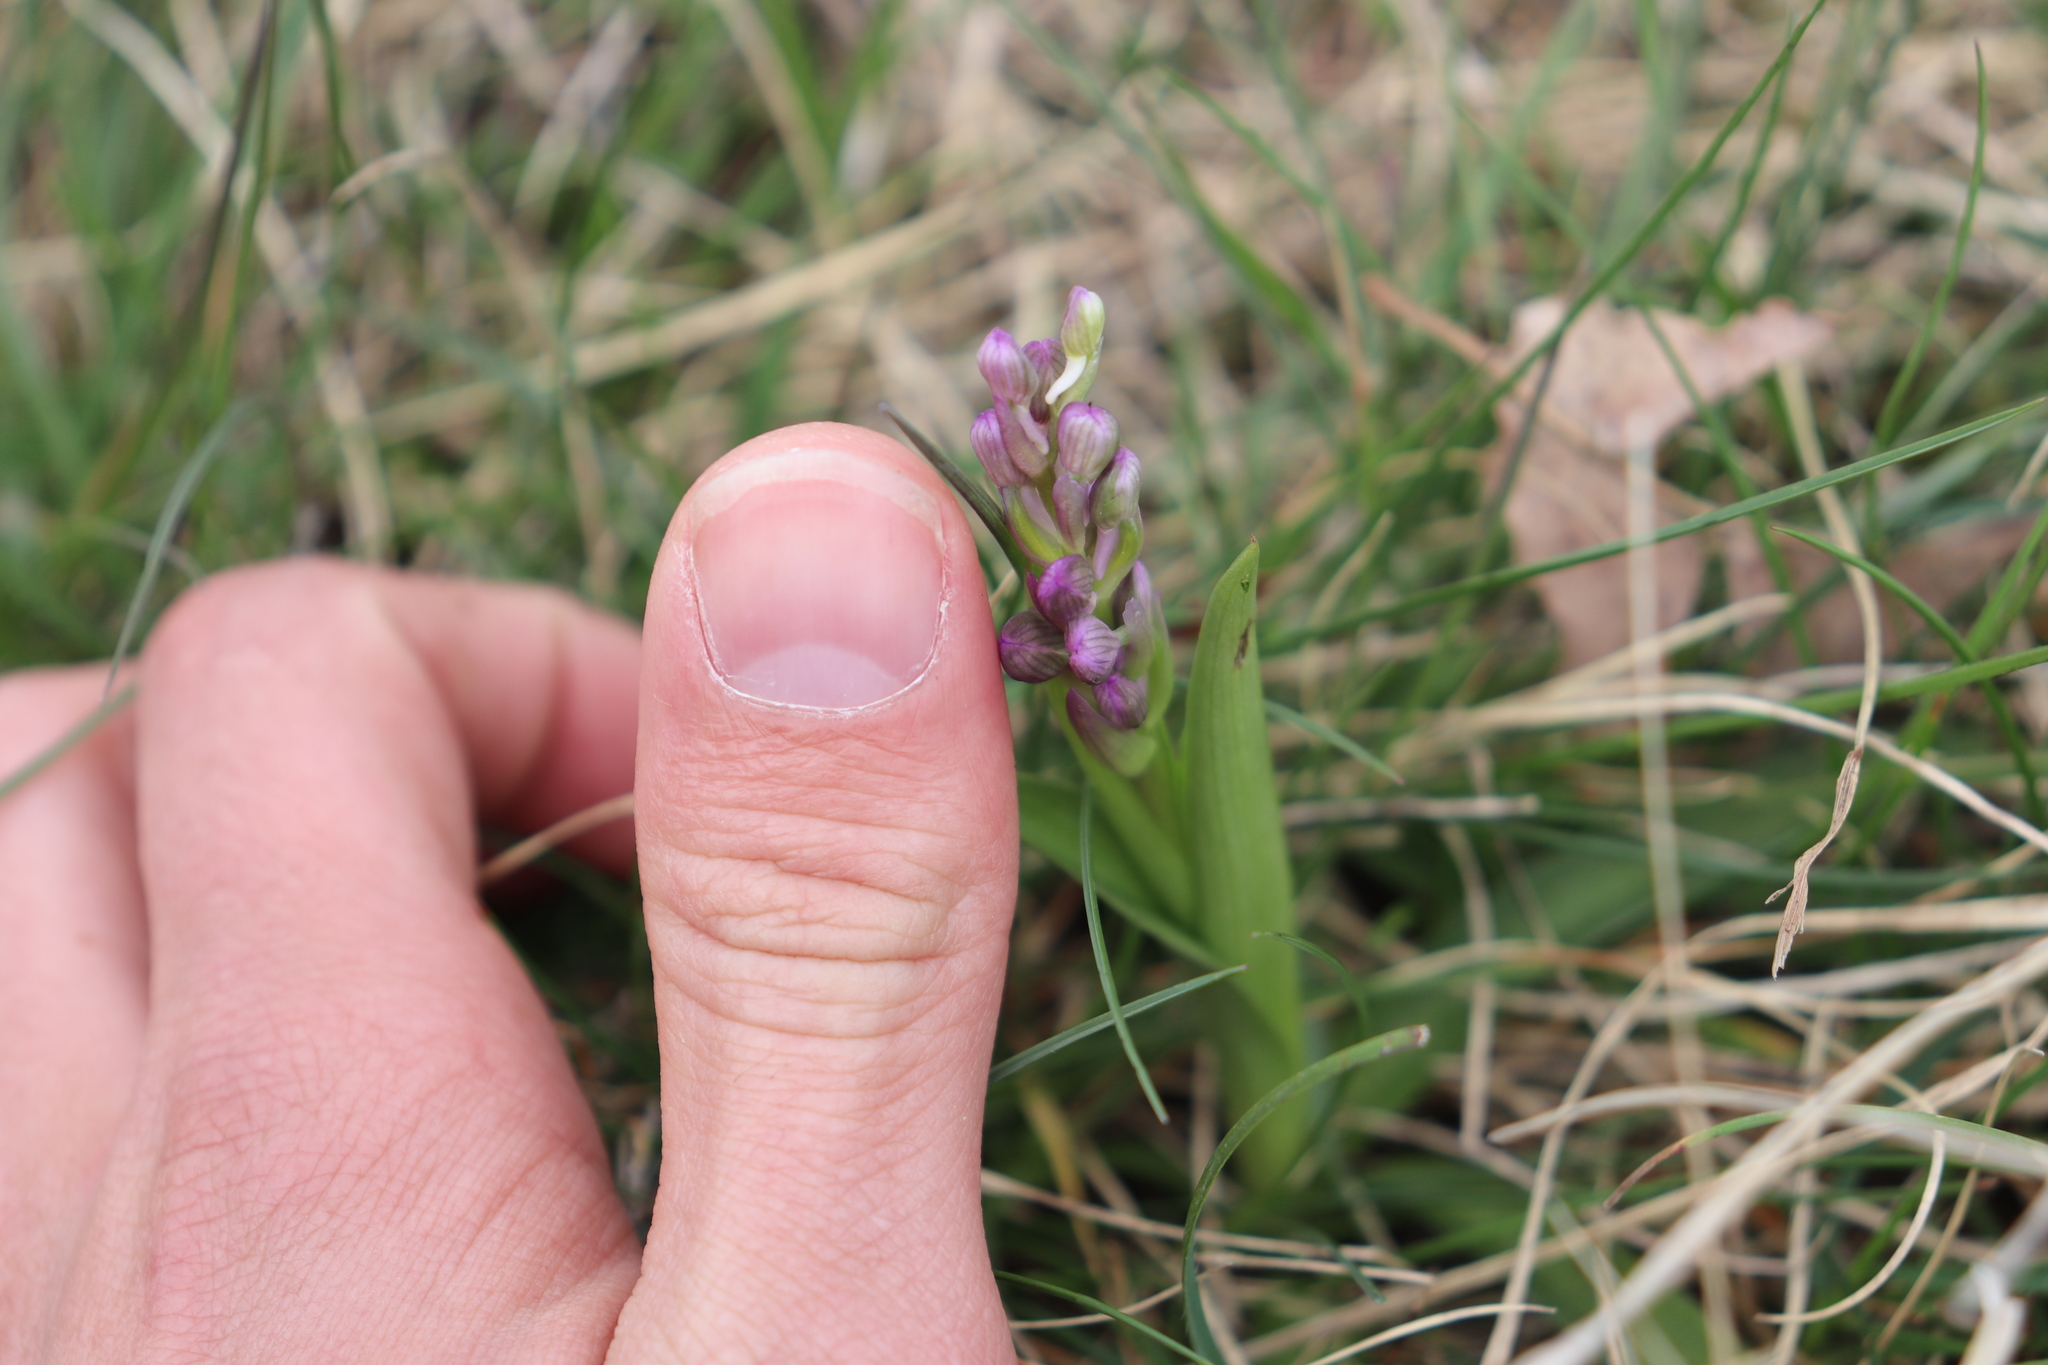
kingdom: Plantae
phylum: Tracheophyta
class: Liliopsida
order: Asparagales
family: Orchidaceae
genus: Anacamptis
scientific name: Anacamptis morio
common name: Green-winged orchid
